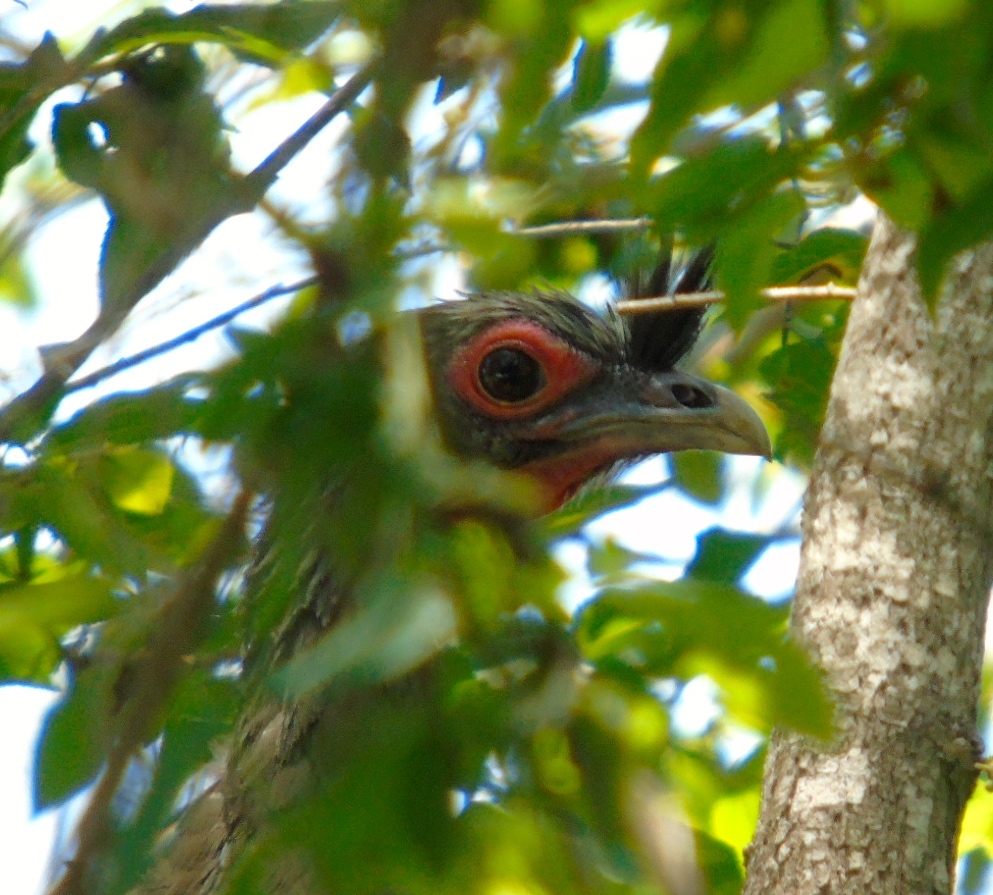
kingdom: Animalia
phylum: Chordata
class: Aves
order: Galliformes
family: Cracidae
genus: Ortalis
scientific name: Ortalis wagleri
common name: Rufous-bellied chachalaca
